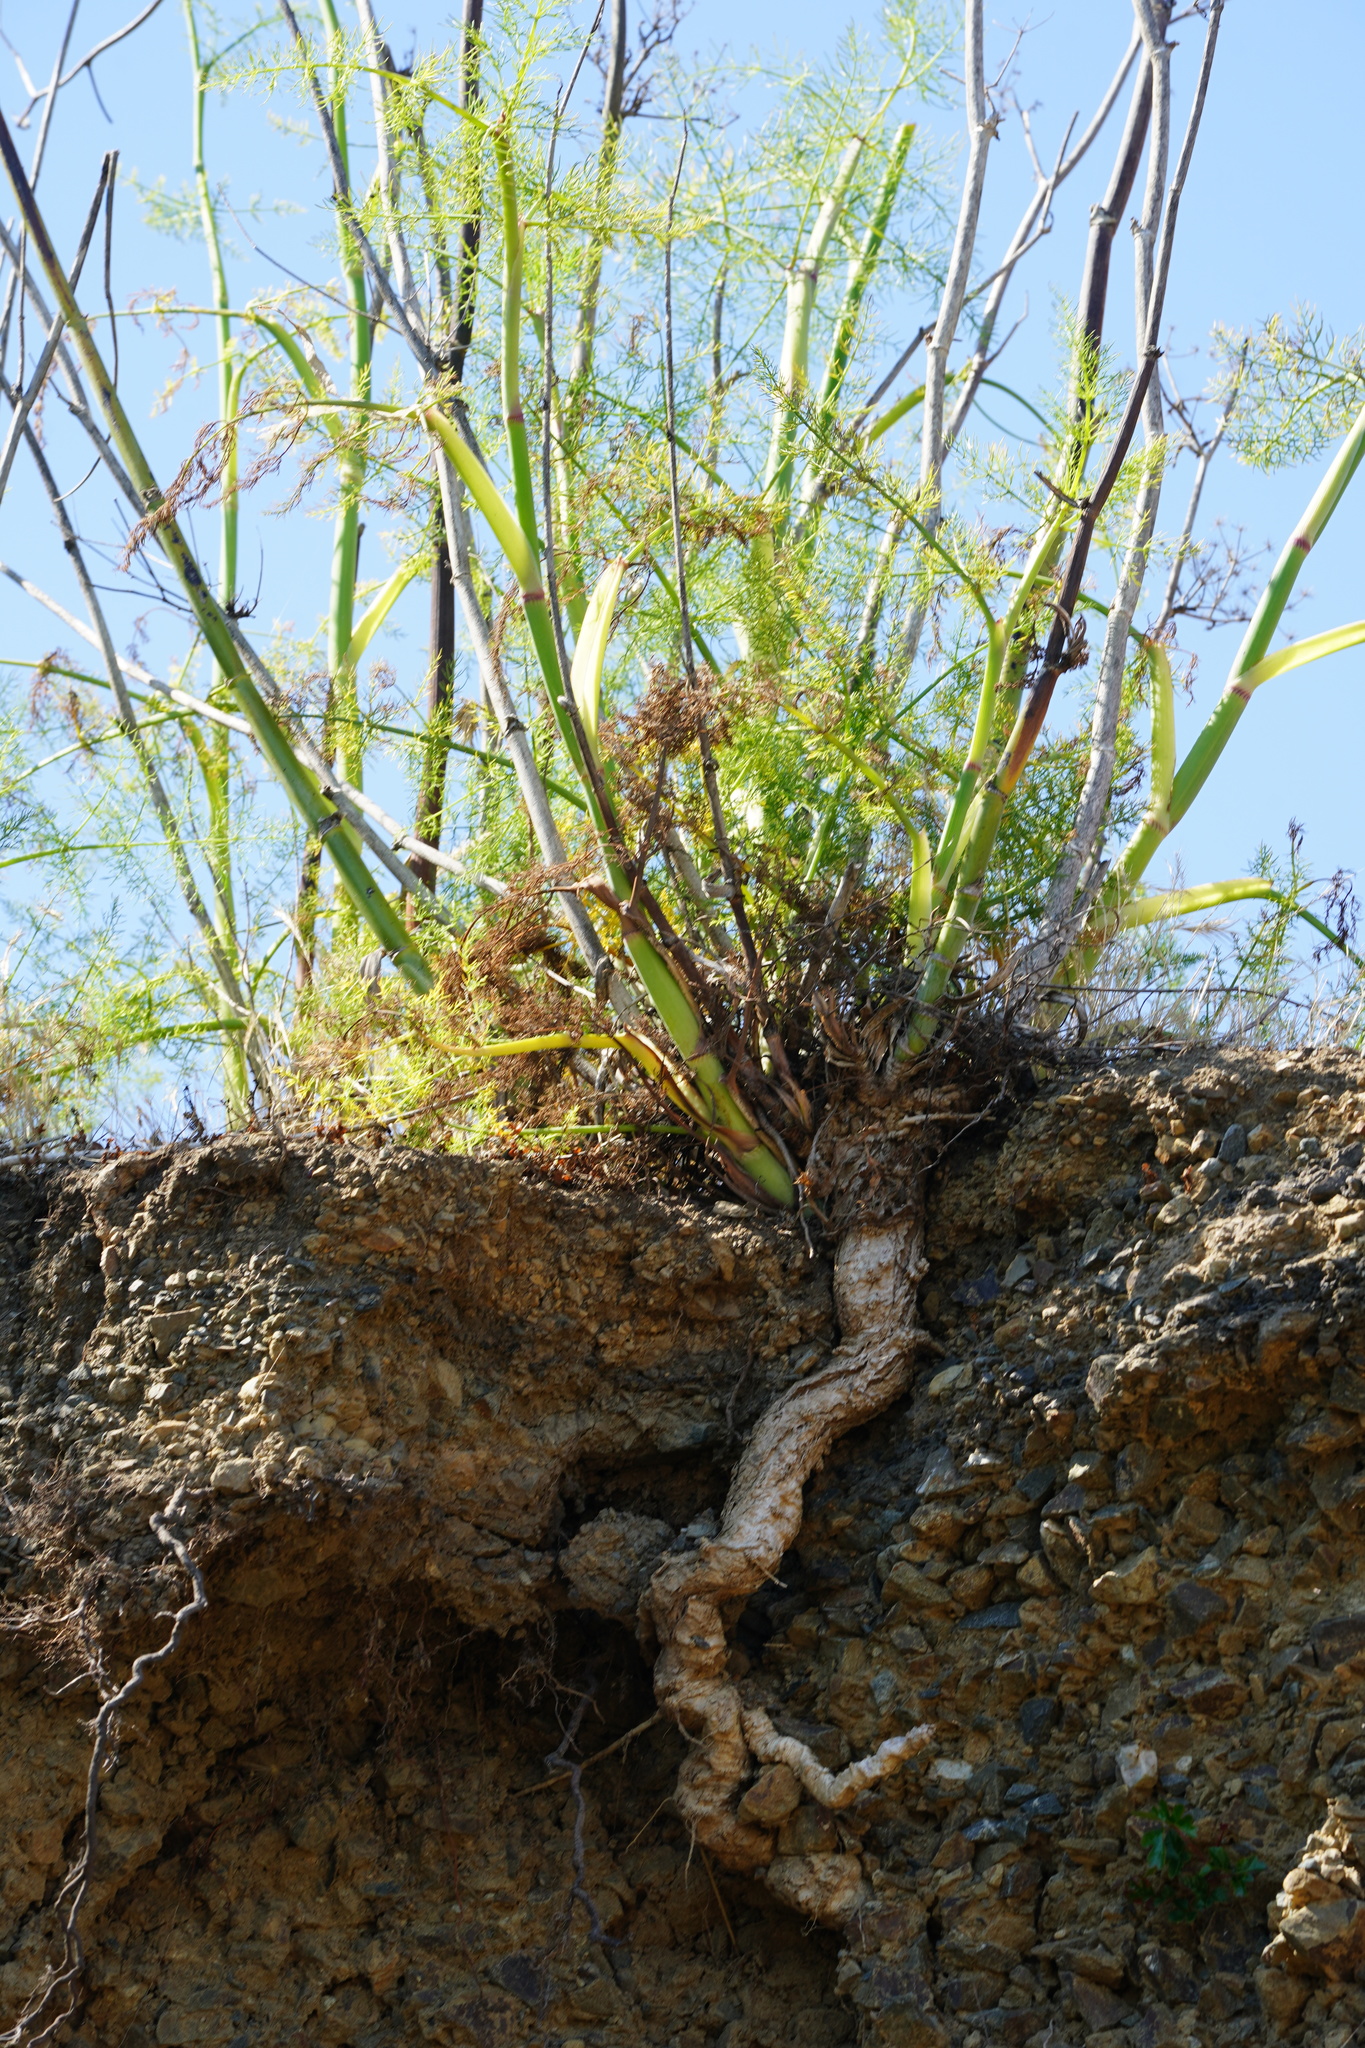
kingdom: Plantae
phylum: Tracheophyta
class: Magnoliopsida
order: Apiales
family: Apiaceae
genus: Foeniculum
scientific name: Foeniculum vulgare
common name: Fennel
